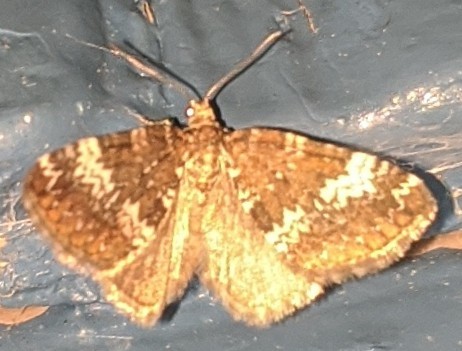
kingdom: Animalia
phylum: Arthropoda
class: Insecta
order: Lepidoptera
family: Geometridae
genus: Perizoma
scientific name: Perizoma alchemillata
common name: Small rivulet
